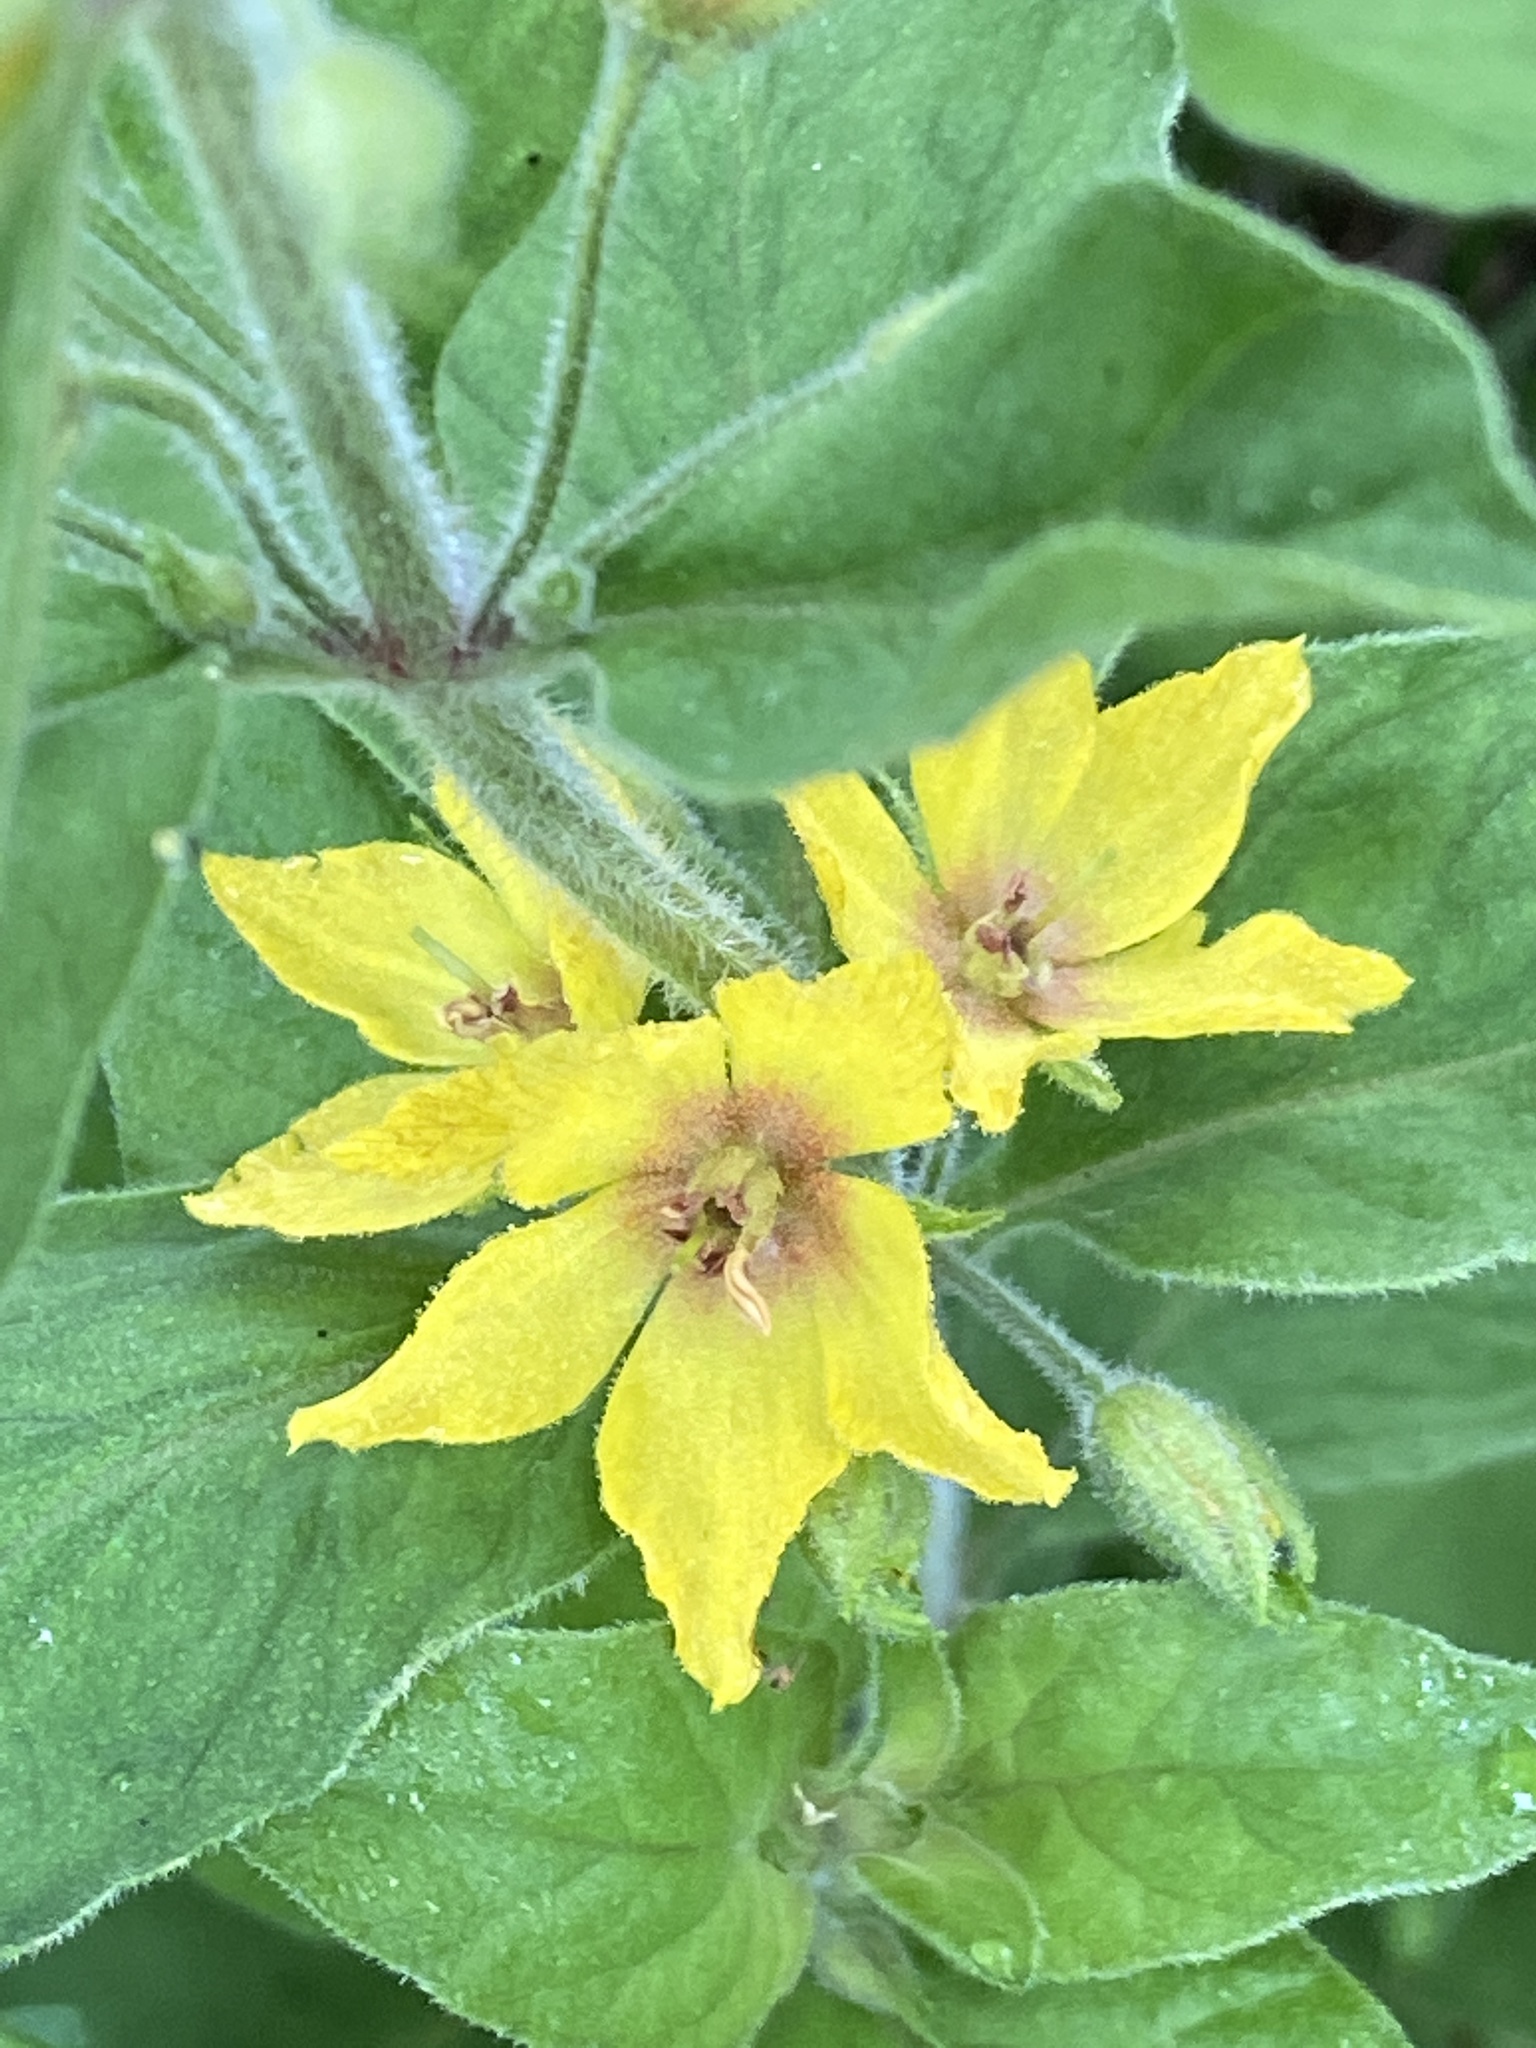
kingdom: Plantae
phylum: Tracheophyta
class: Magnoliopsida
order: Ericales
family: Primulaceae
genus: Lysimachia
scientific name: Lysimachia punctata
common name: Dotted loosestrife
